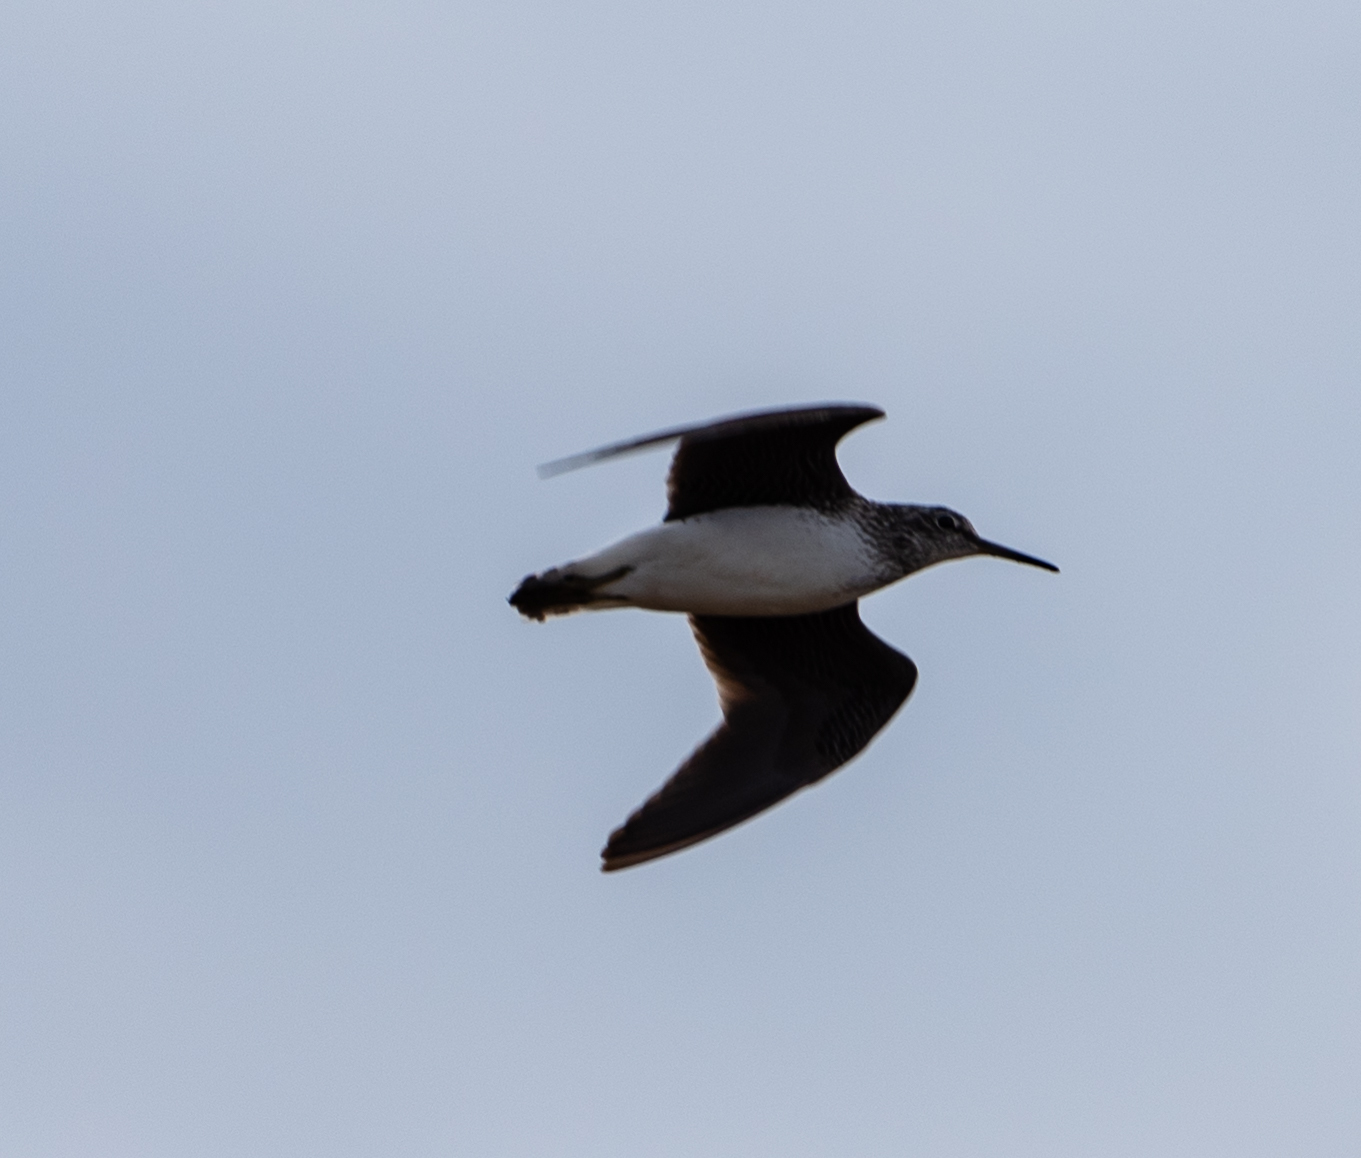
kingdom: Animalia
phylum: Chordata
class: Aves
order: Charadriiformes
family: Scolopacidae
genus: Tringa
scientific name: Tringa ochropus
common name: Green sandpiper
